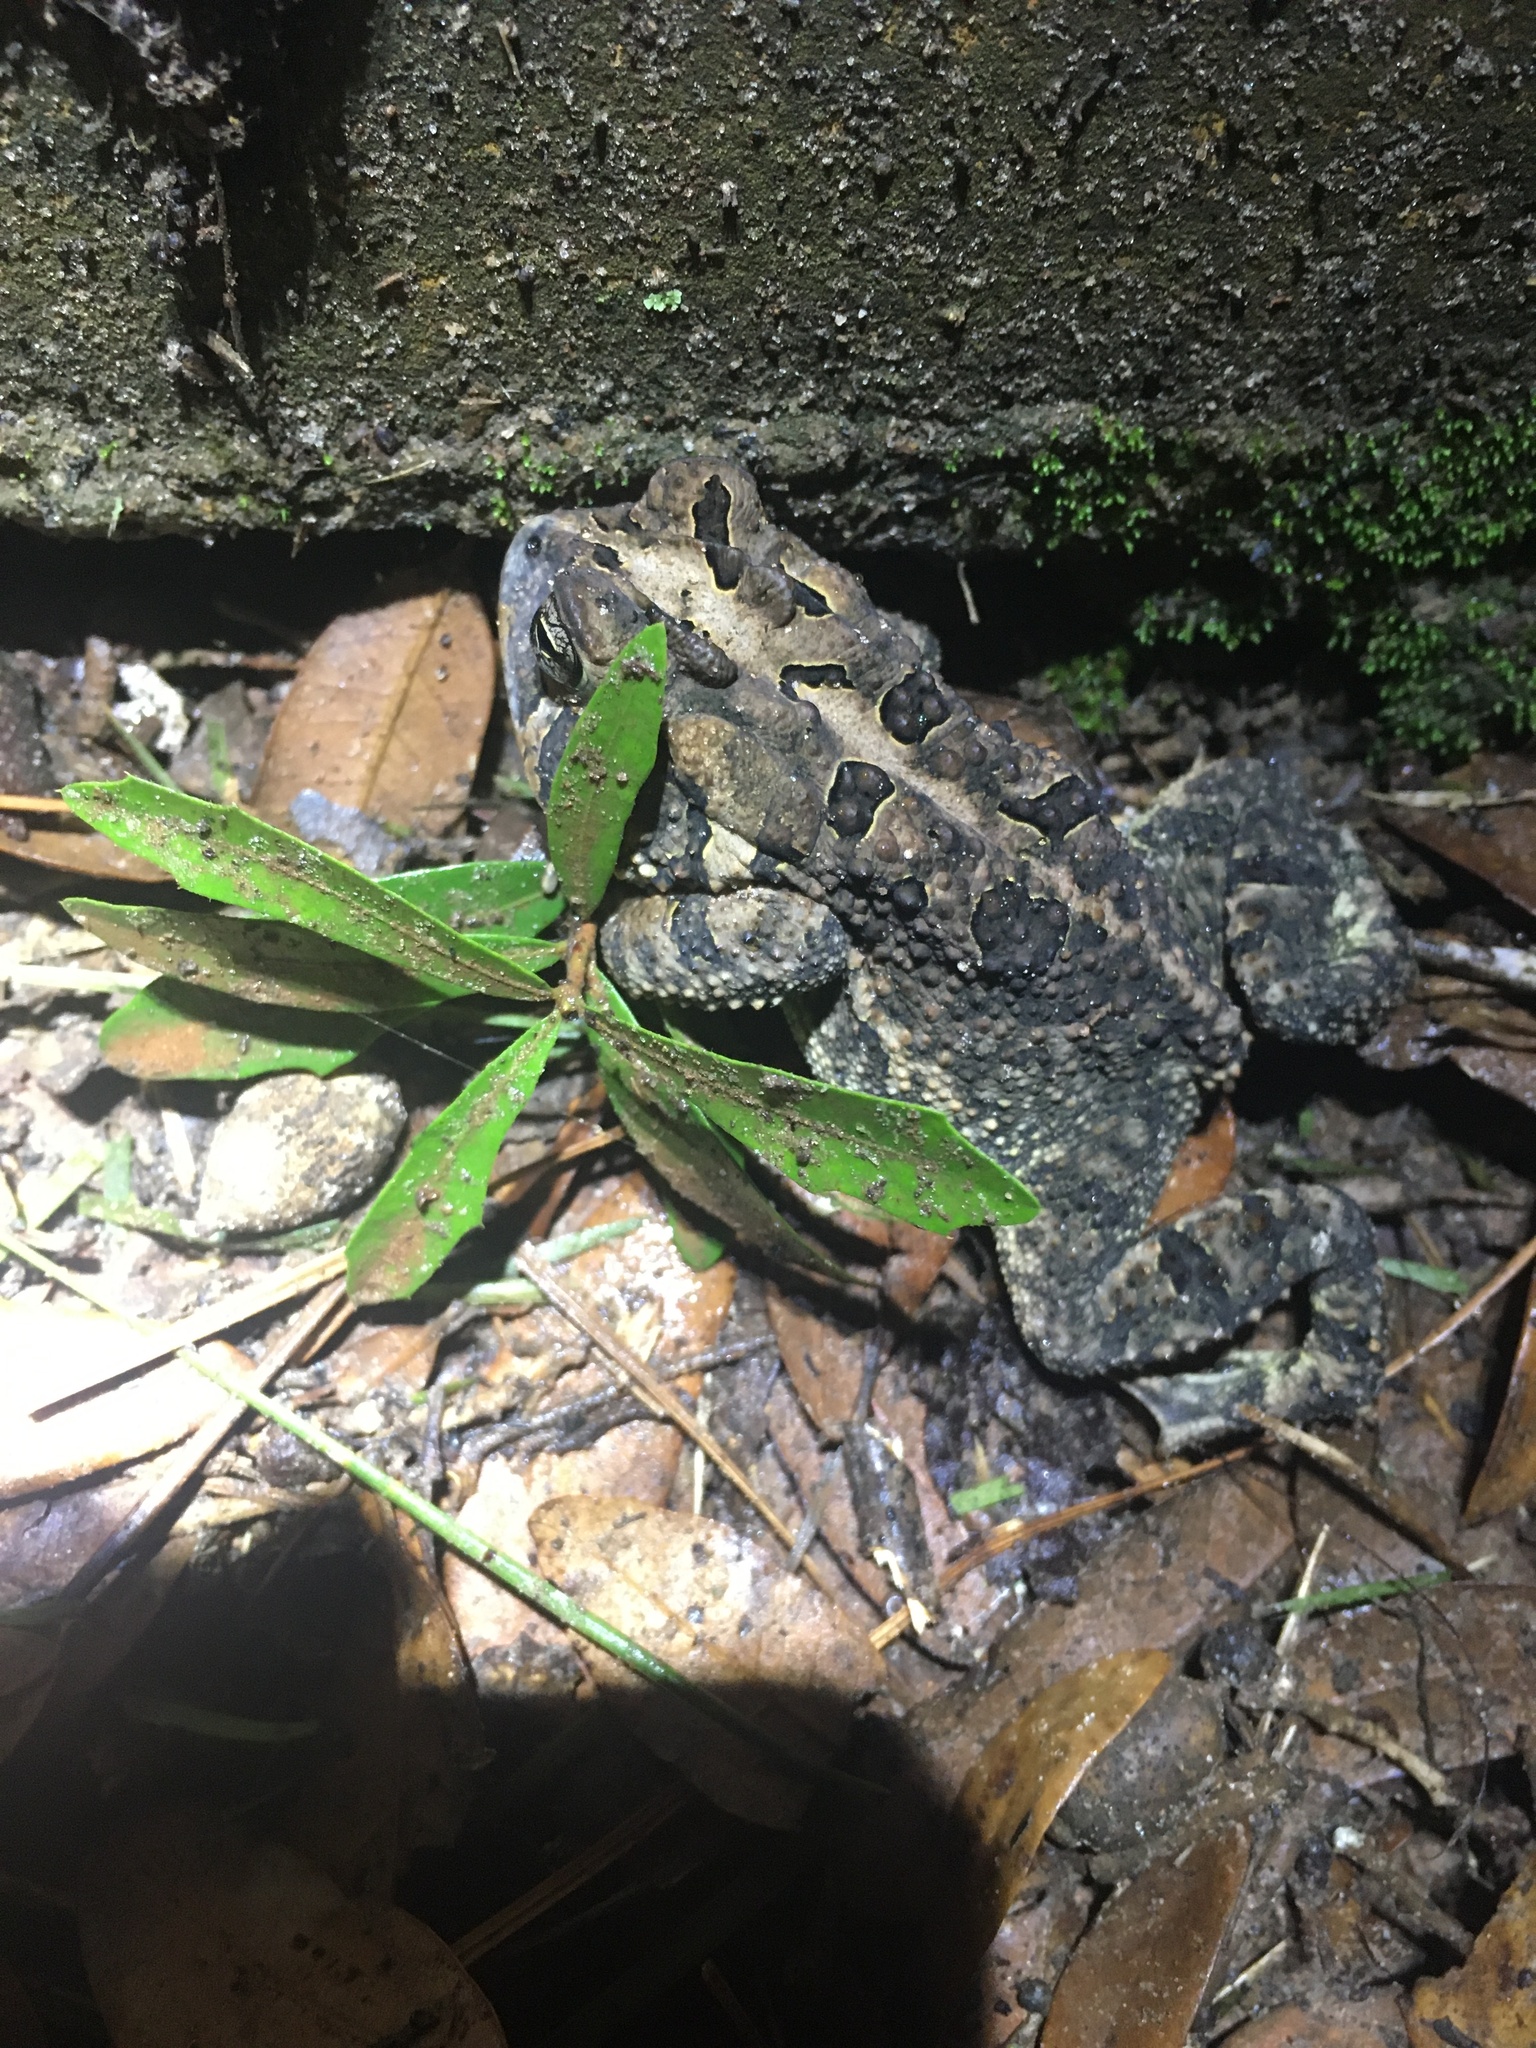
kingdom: Animalia
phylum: Chordata
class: Amphibia
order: Anura
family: Bufonidae
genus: Anaxyrus
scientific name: Anaxyrus terrestris
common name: Southern toad
